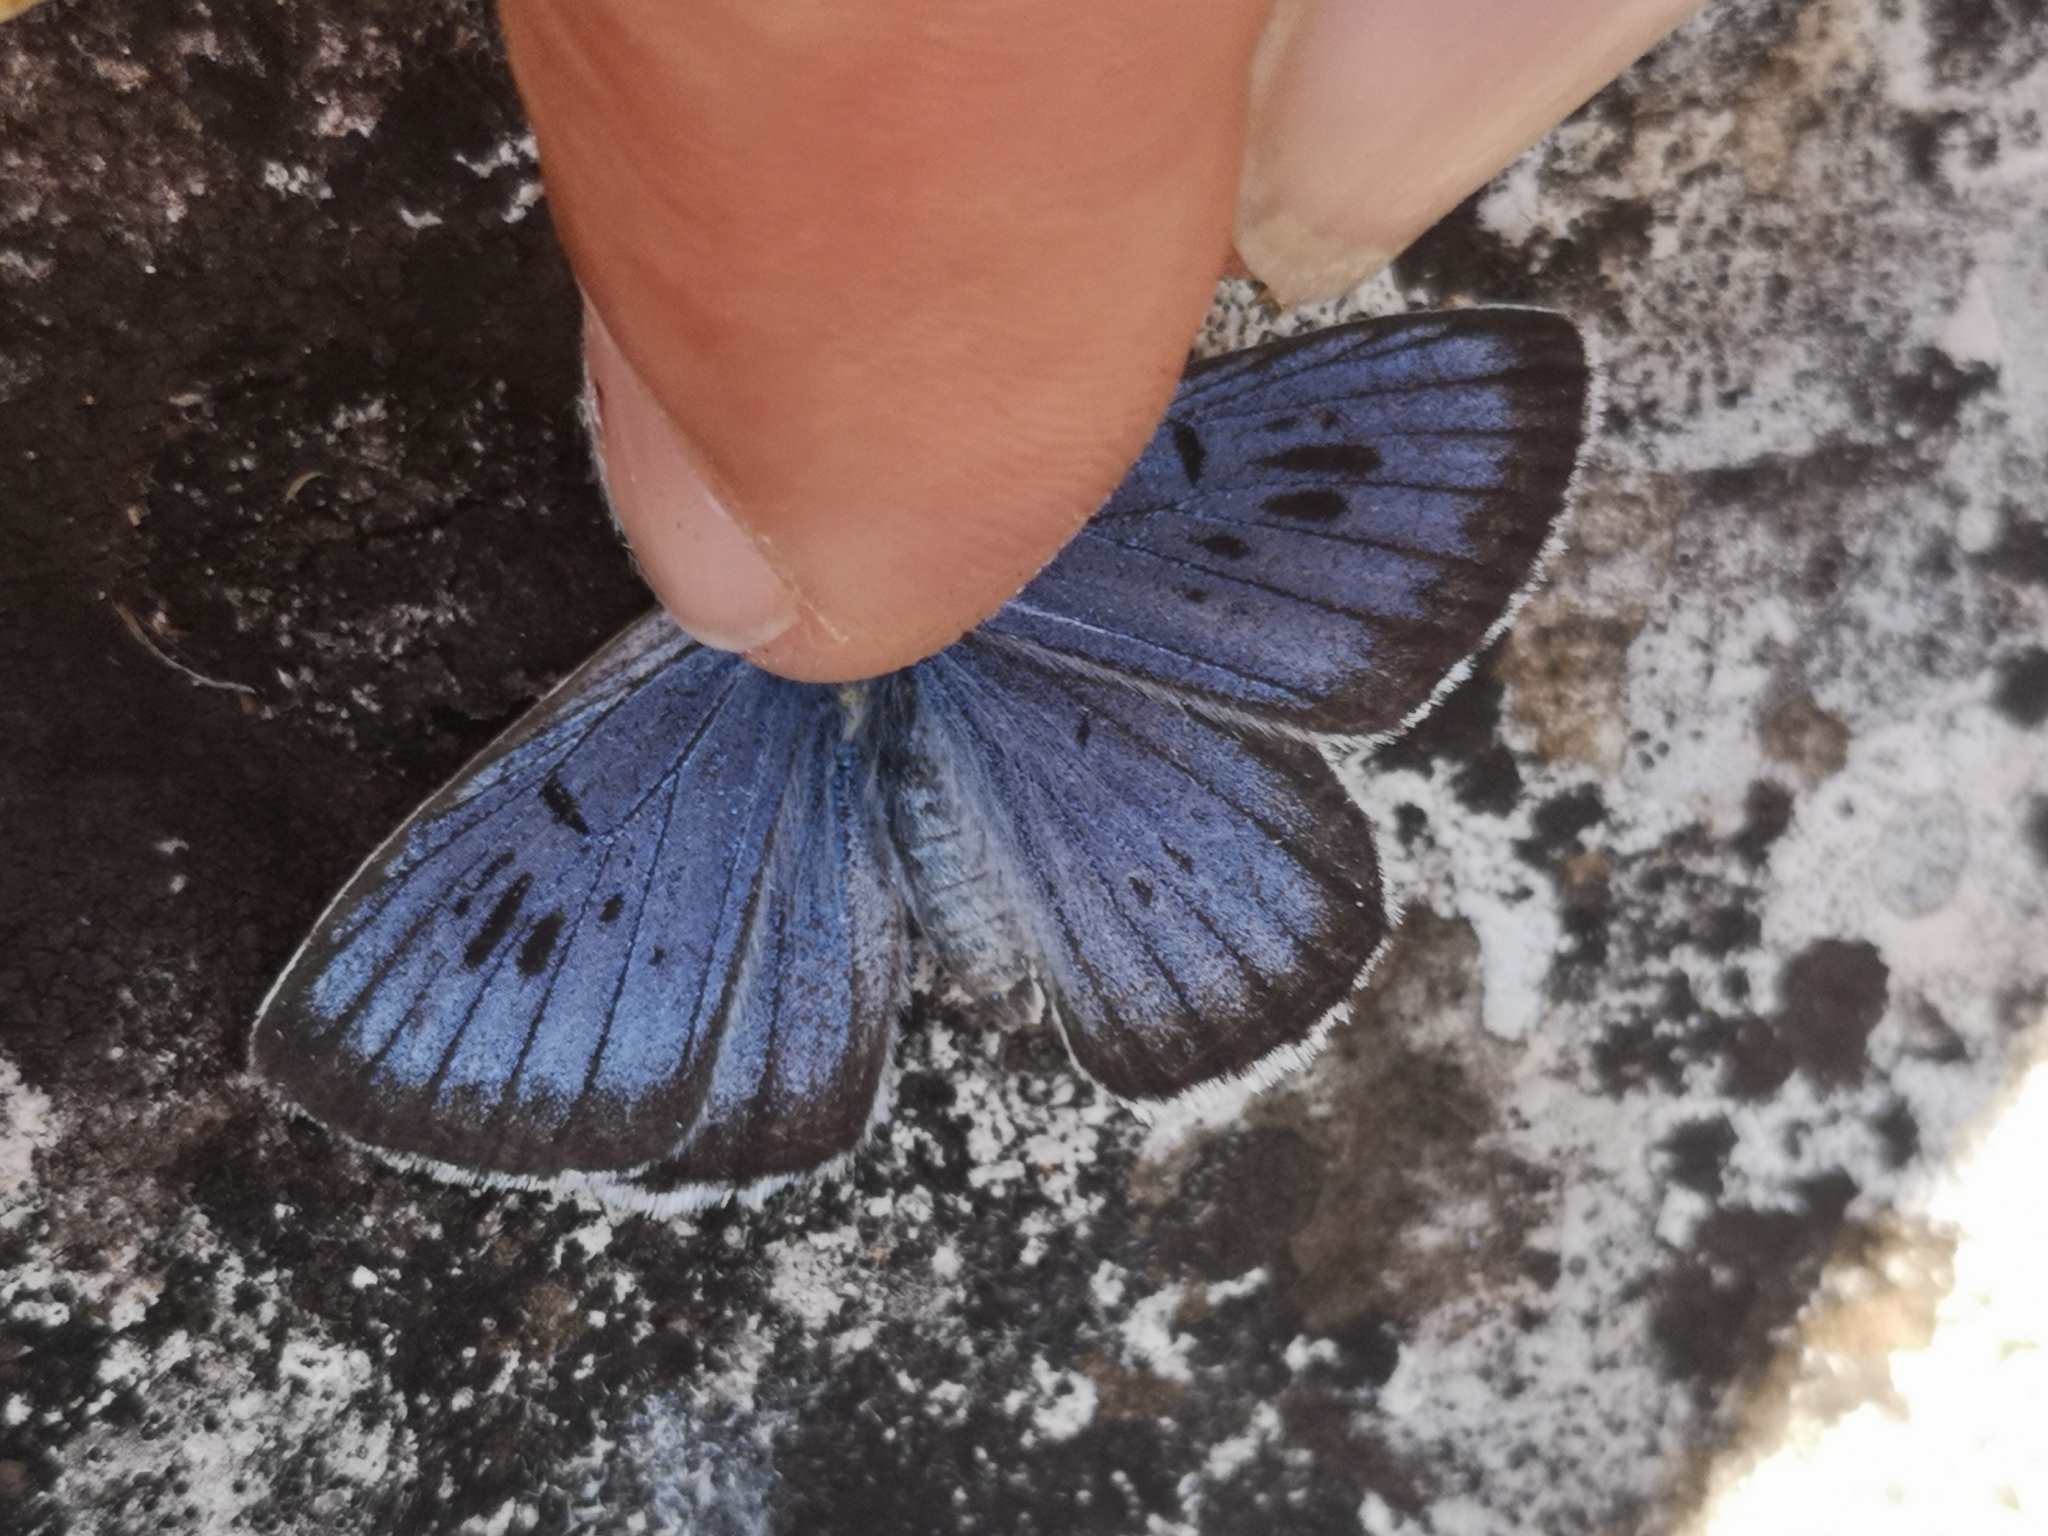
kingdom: Animalia
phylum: Arthropoda
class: Insecta
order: Lepidoptera
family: Lycaenidae
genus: Maculinea
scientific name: Maculinea arion
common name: Large blue
